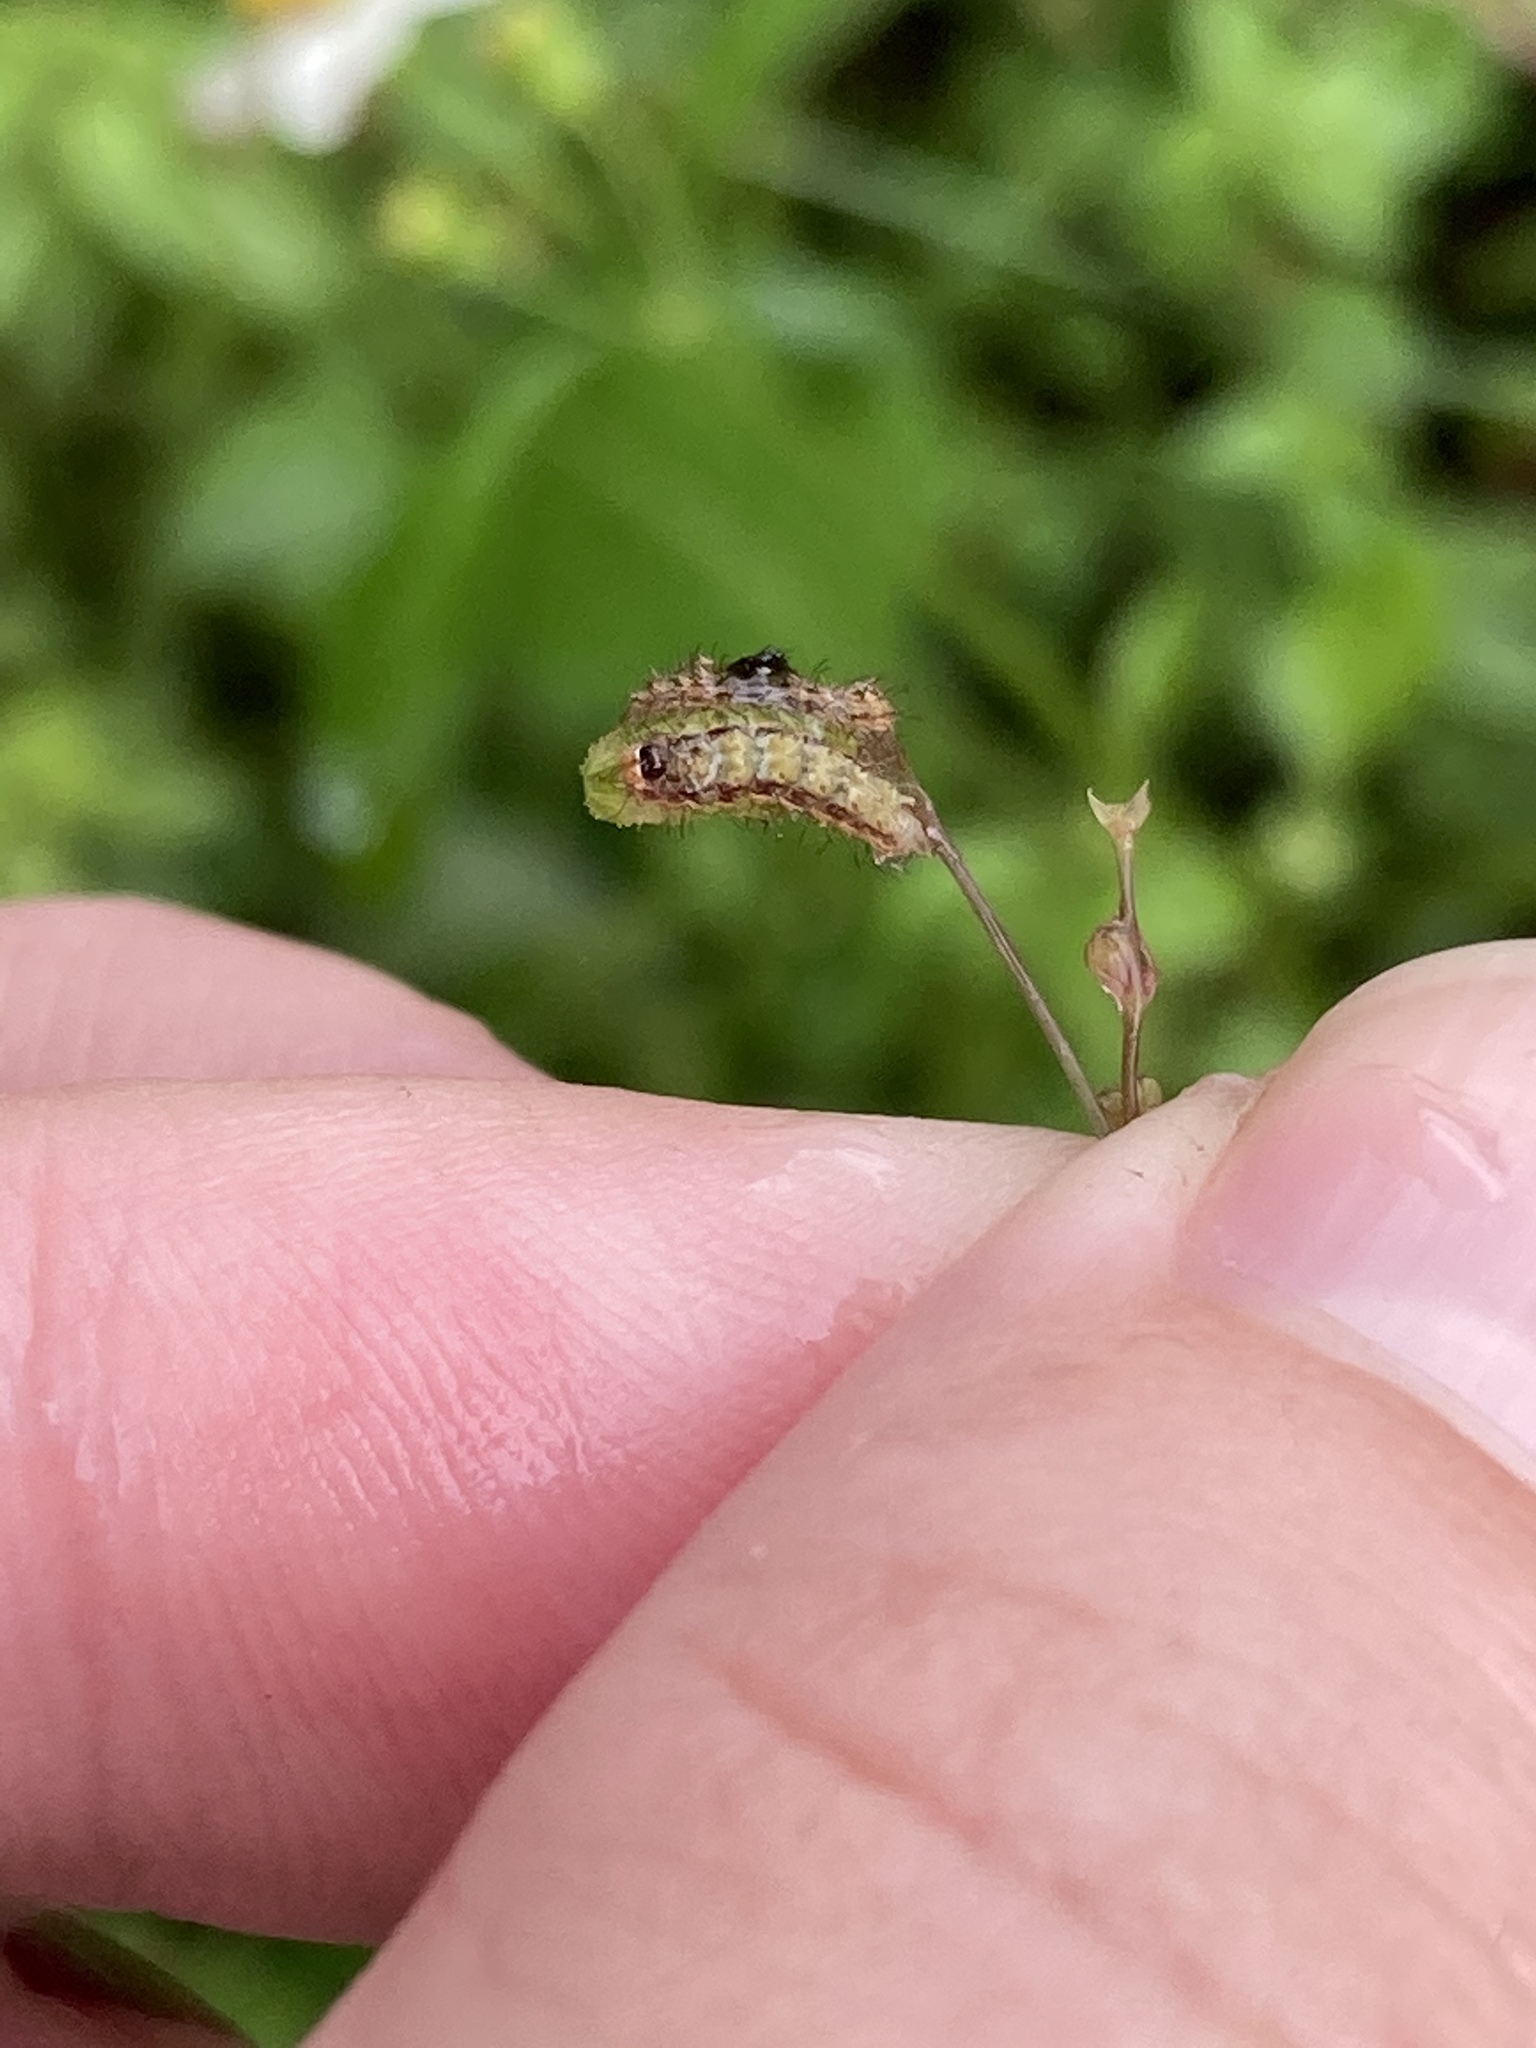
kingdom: Animalia
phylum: Arthropoda
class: Insecta
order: Lepidoptera
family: Pterophoridae
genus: Megalorhipida
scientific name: Megalorhipida leucodactylus
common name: Plume moth
